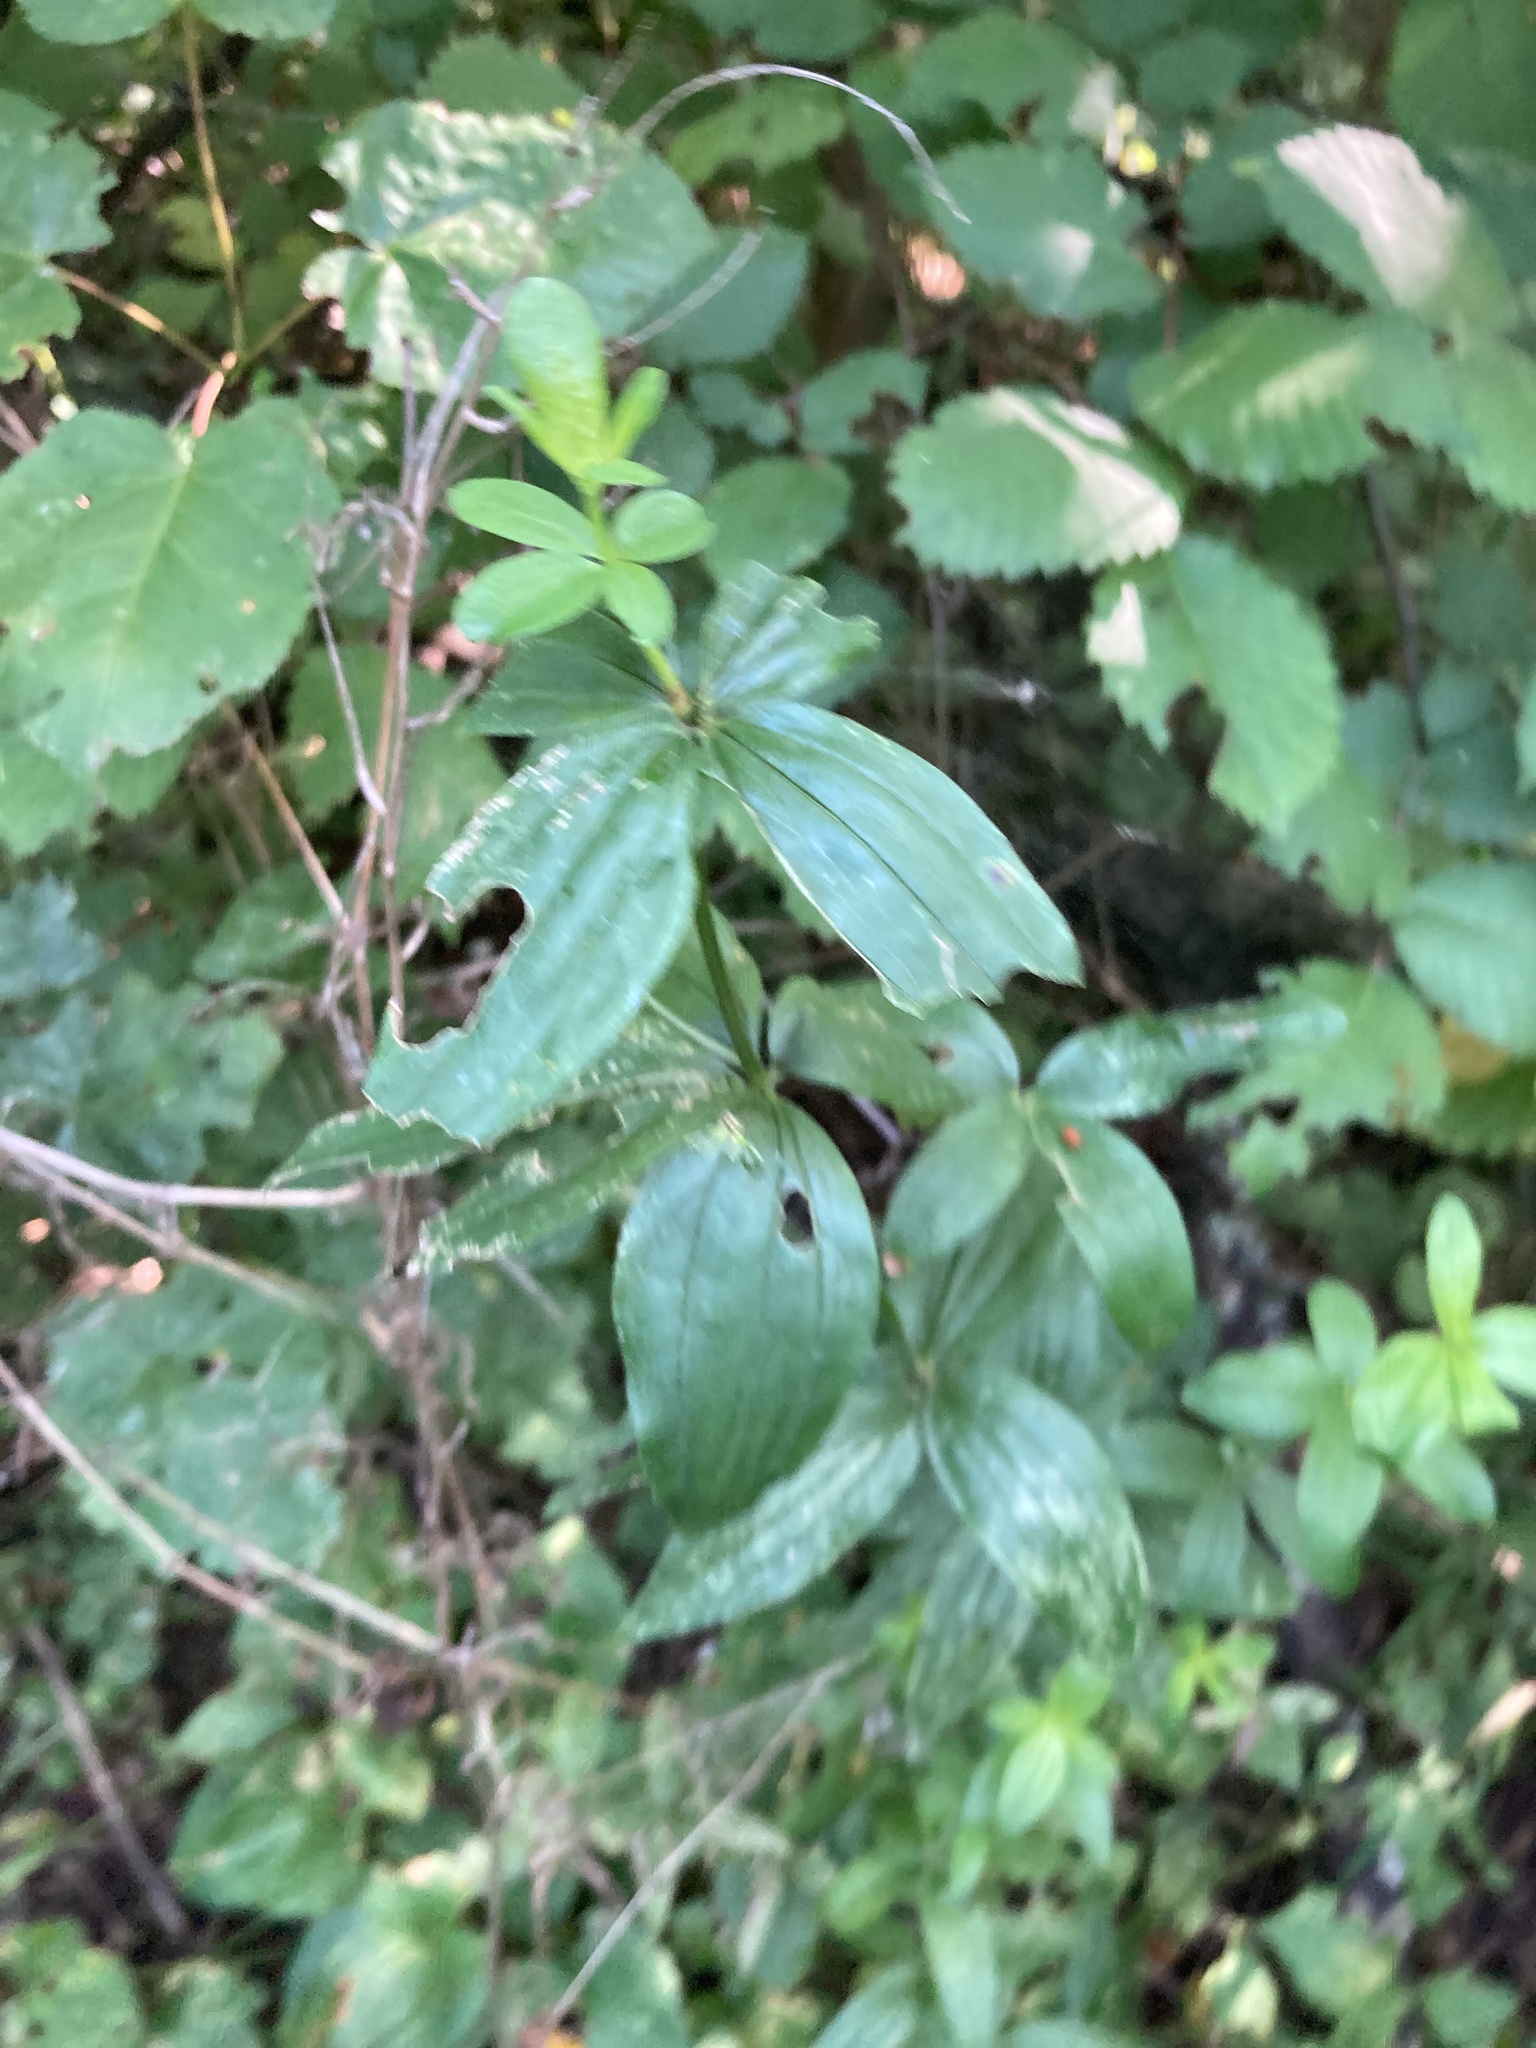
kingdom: Plantae
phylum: Tracheophyta
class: Magnoliopsida
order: Gentianales
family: Rubiaceae
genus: Galium
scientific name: Galium rubioides
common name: European bedstraw
